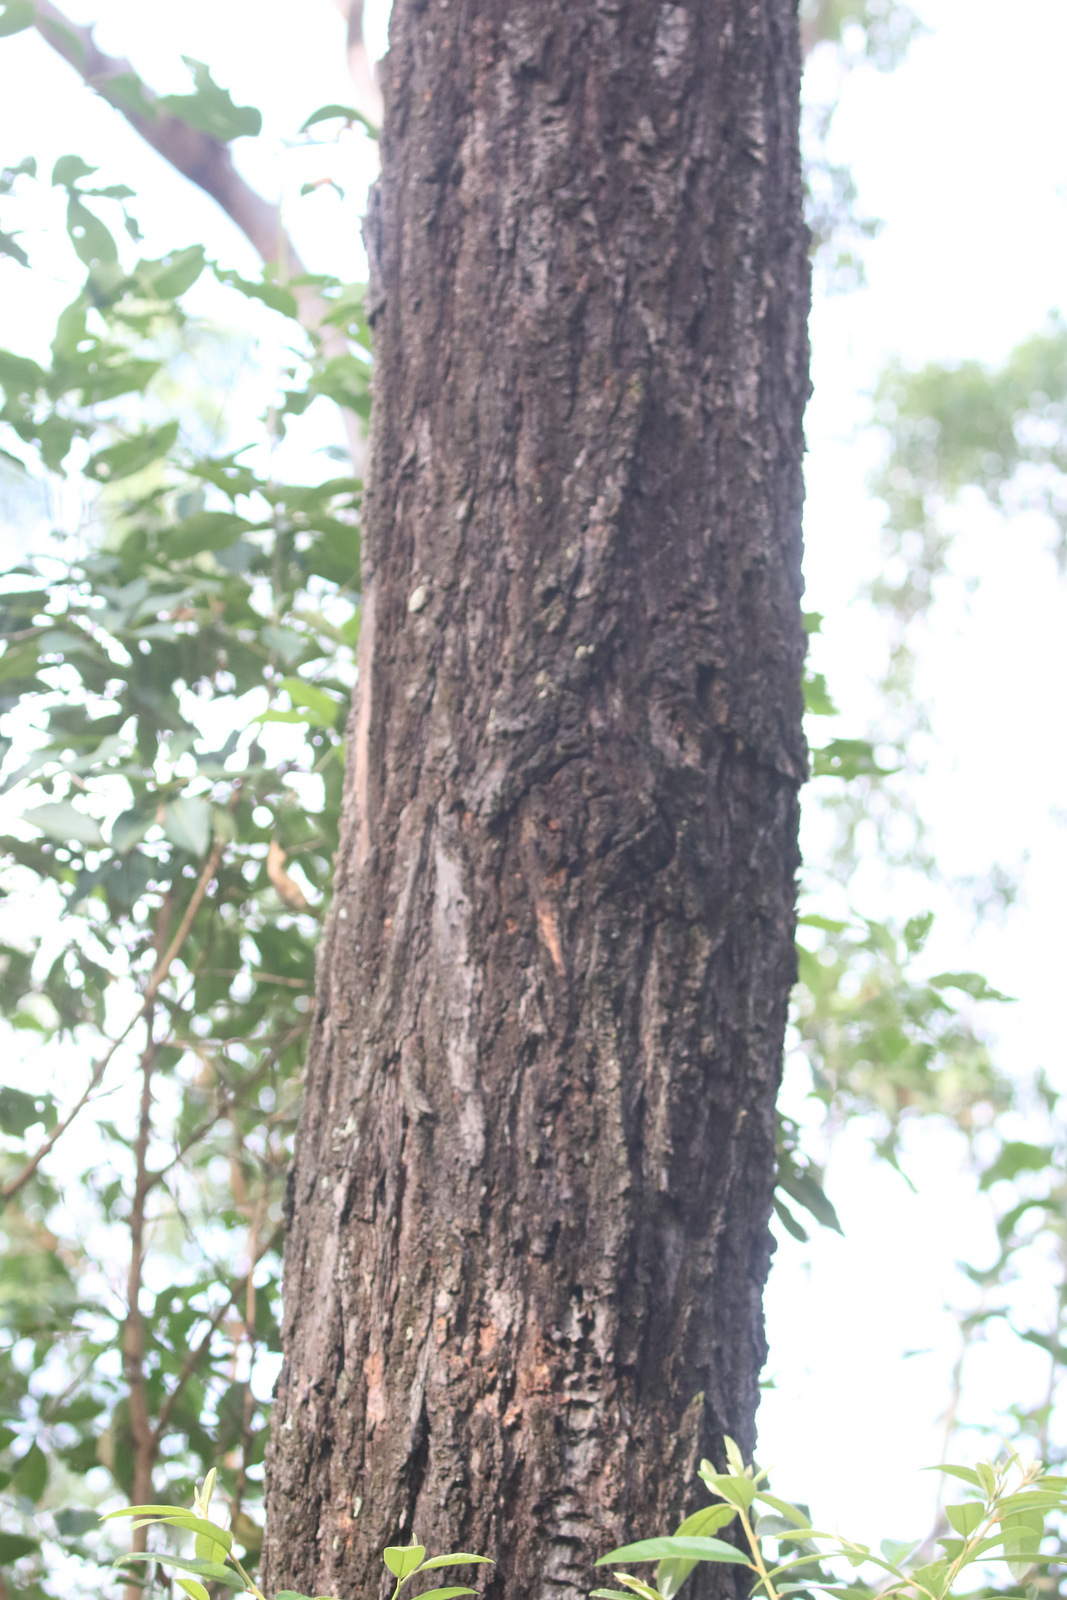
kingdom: Plantae
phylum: Tracheophyta
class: Magnoliopsida
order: Myrtales
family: Myrtaceae
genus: Eucalyptus
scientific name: Eucalyptus fibrosa
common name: Red ironbark
